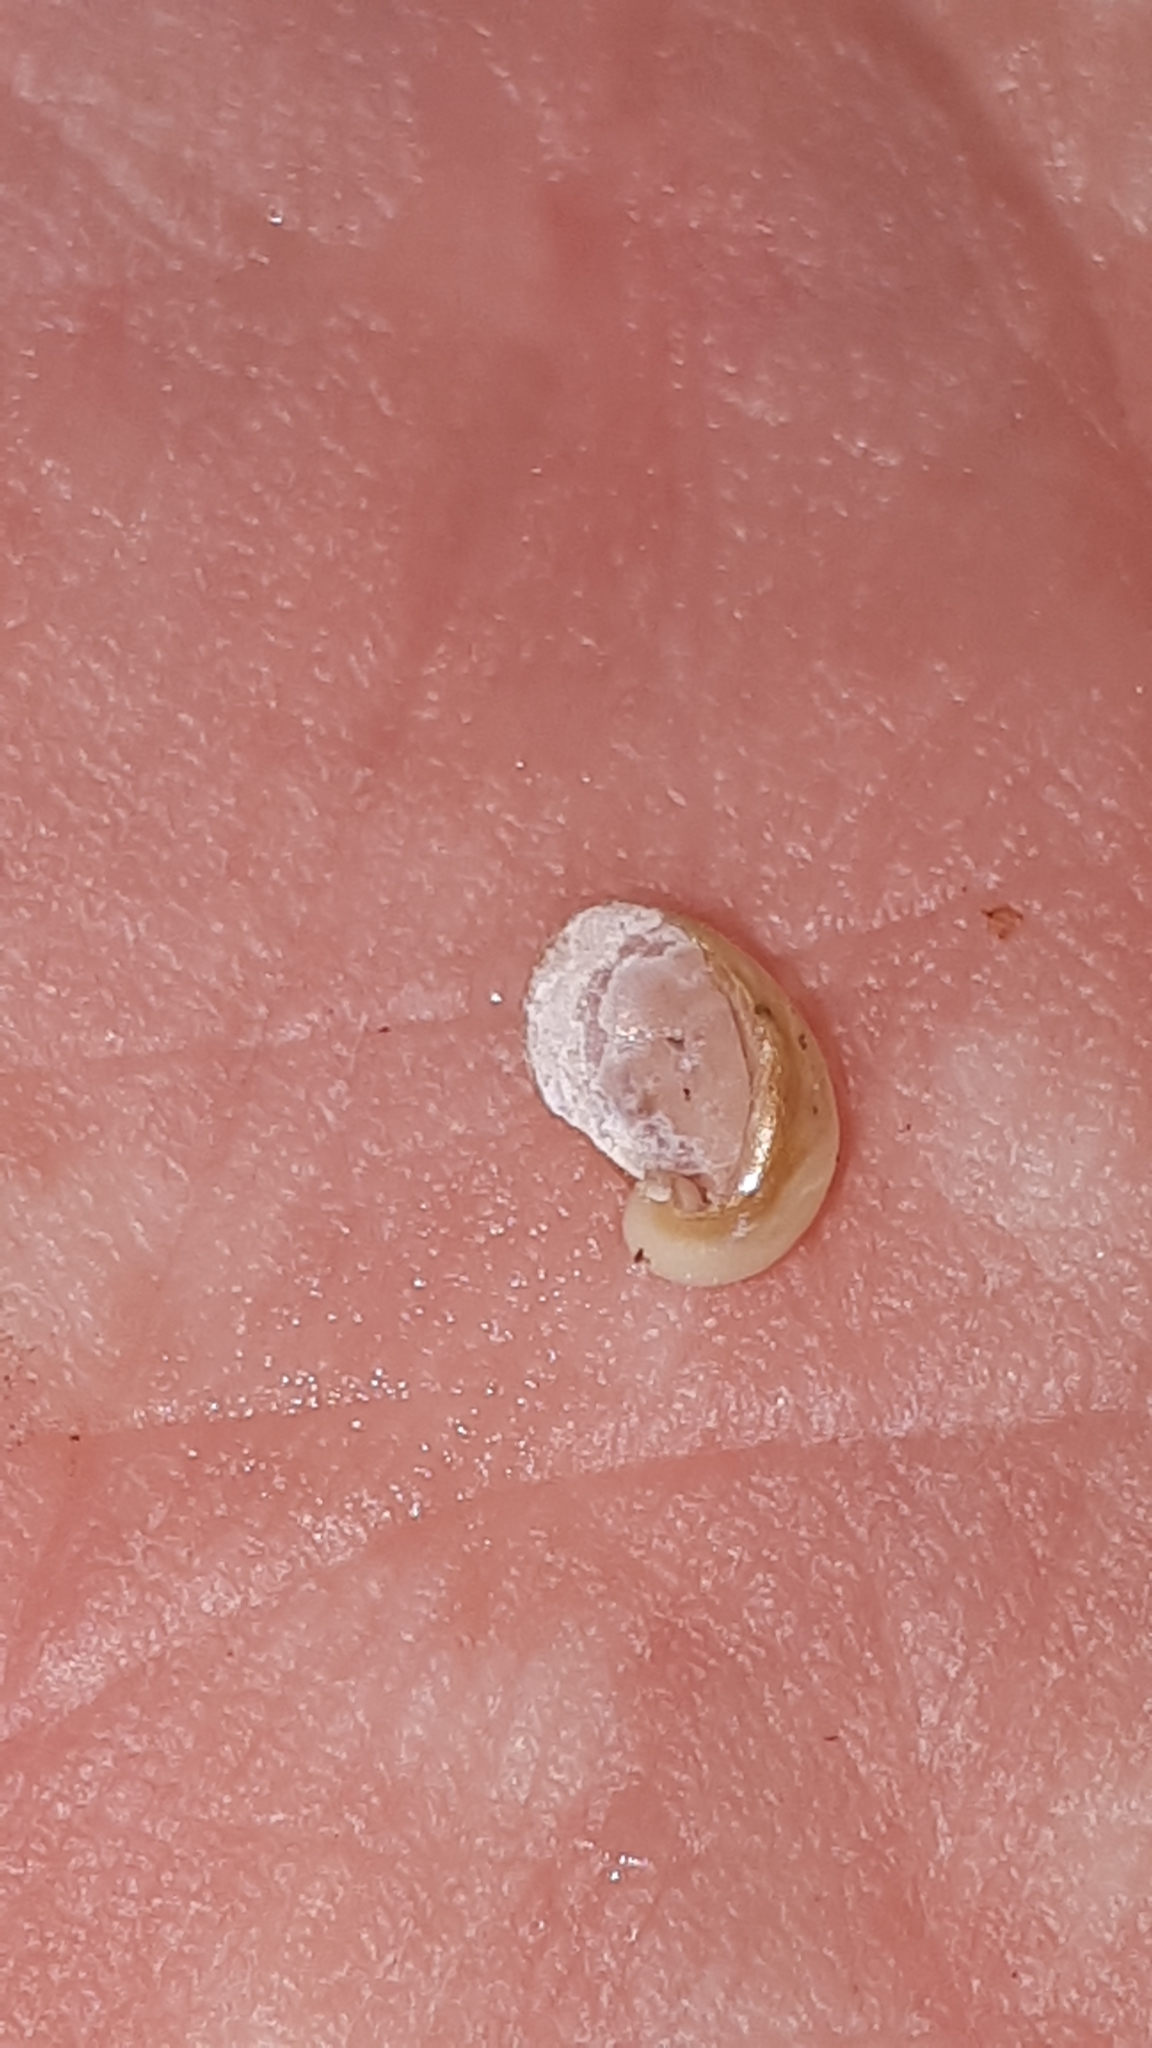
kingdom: Animalia
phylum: Mollusca
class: Gastropoda
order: Stylommatophora
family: Vitrinidae
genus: Semilimax
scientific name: Semilimax semilimax
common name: Wide-mouth glass snail
